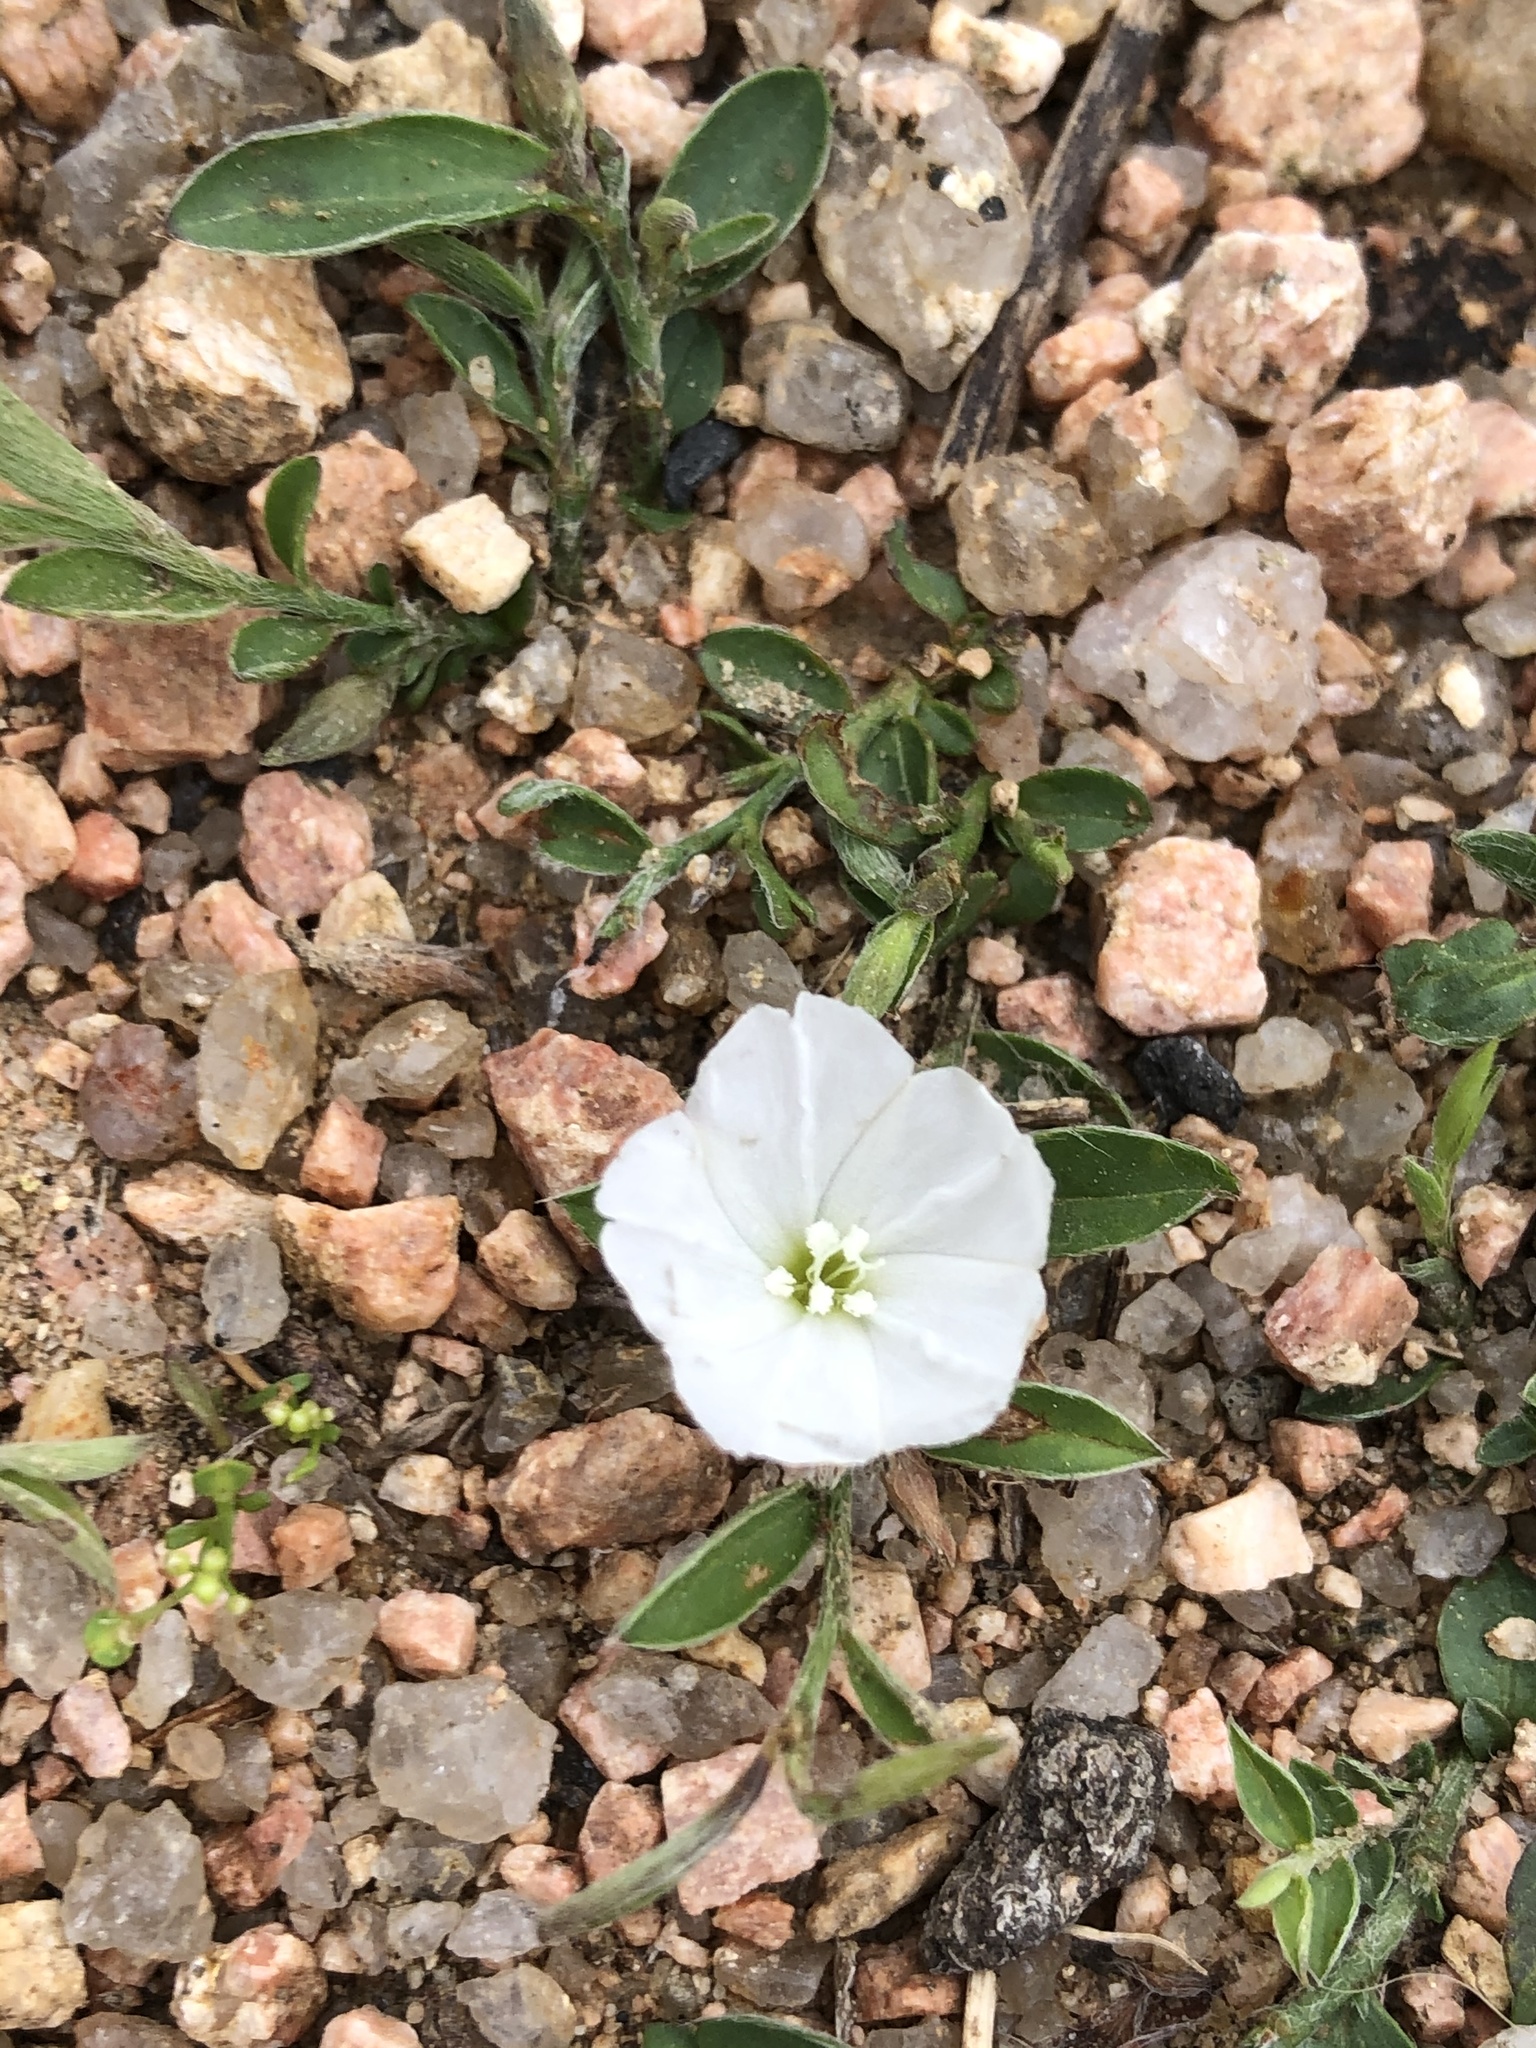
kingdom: Plantae
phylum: Tracheophyta
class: Magnoliopsida
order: Solanales
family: Convolvulaceae
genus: Evolvulus
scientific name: Evolvulus sericeus
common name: Blue dots
